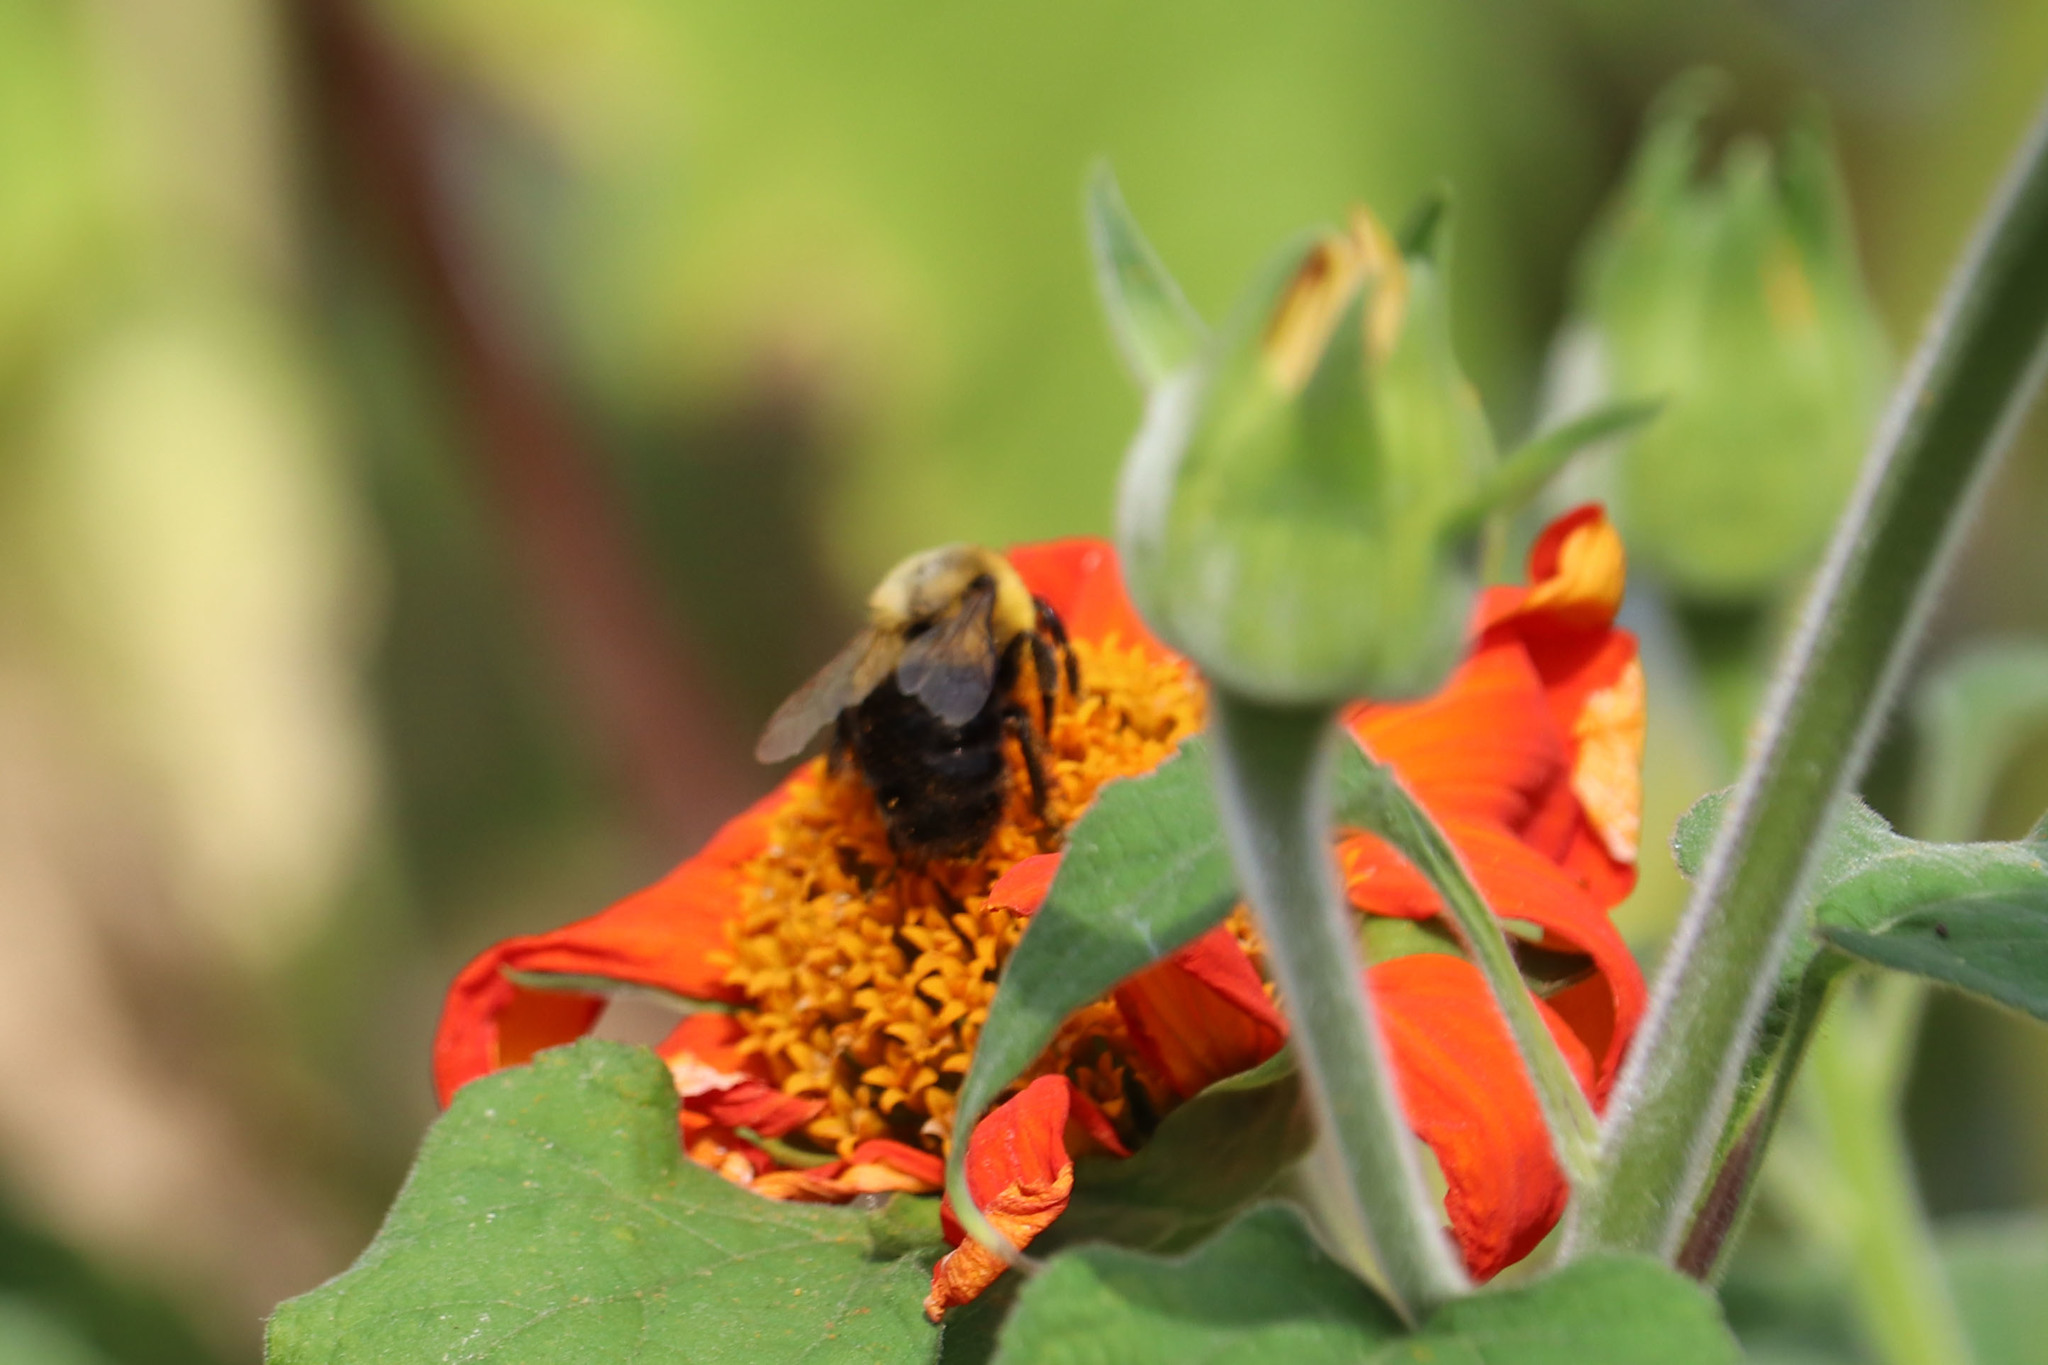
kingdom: Animalia
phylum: Arthropoda
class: Insecta
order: Hymenoptera
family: Apidae
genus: Bombus
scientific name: Bombus impatiens
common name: Common eastern bumble bee
